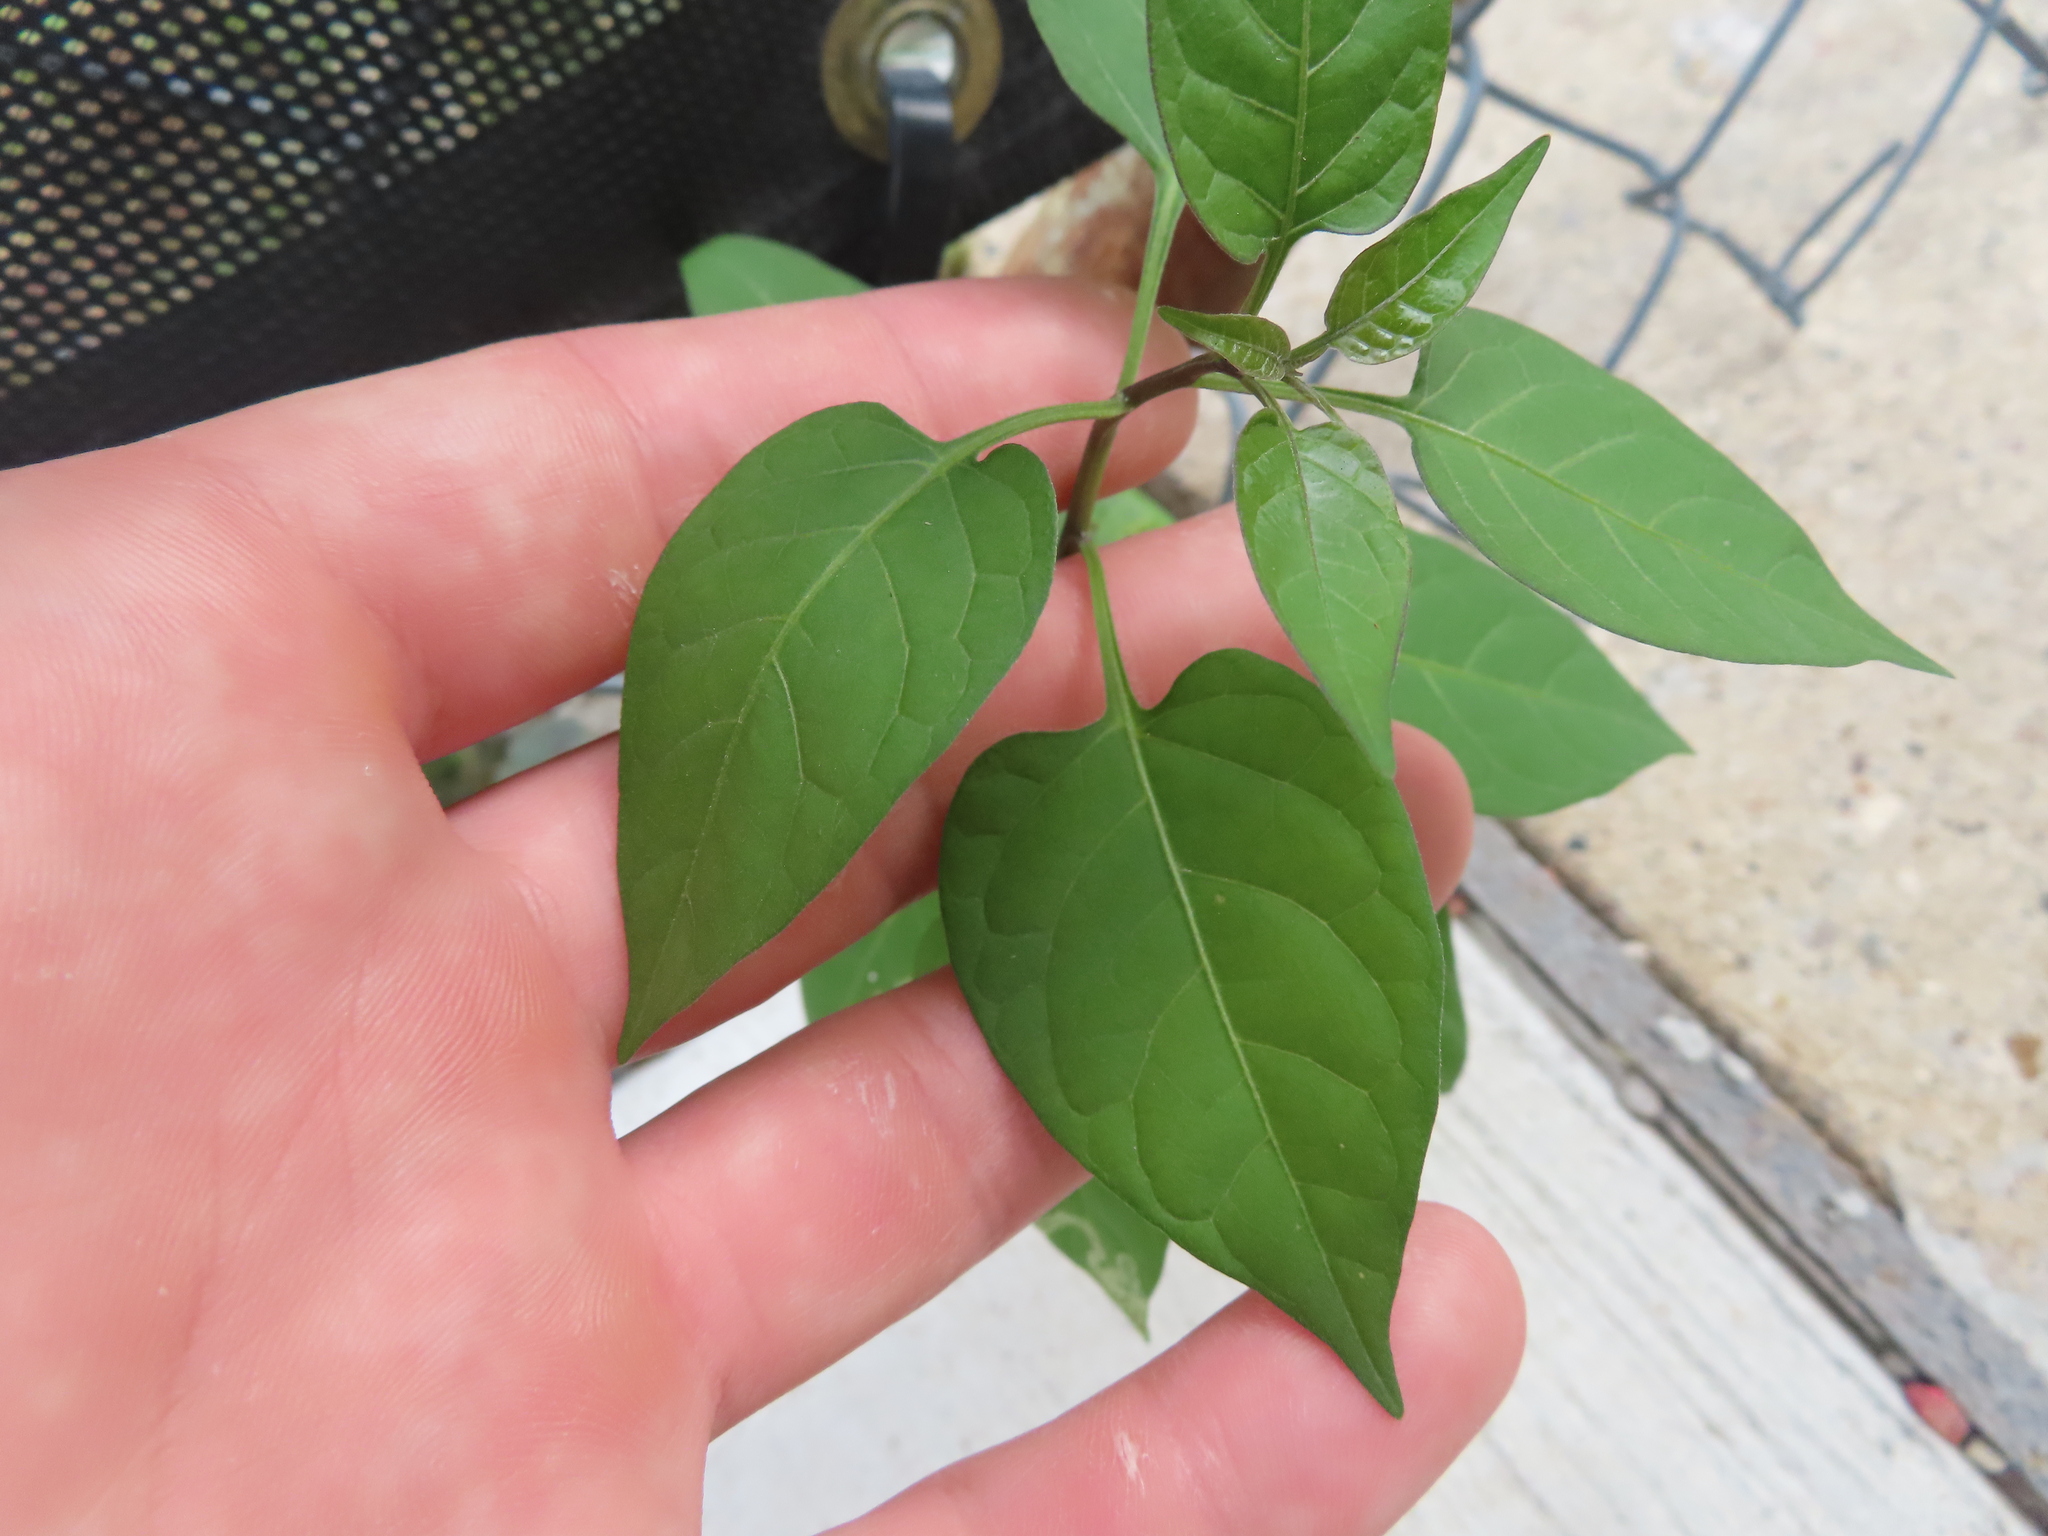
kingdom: Animalia
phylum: Arthropoda
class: Insecta
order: Diptera
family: Agromyzidae
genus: Liriomyza
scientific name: Liriomyza
